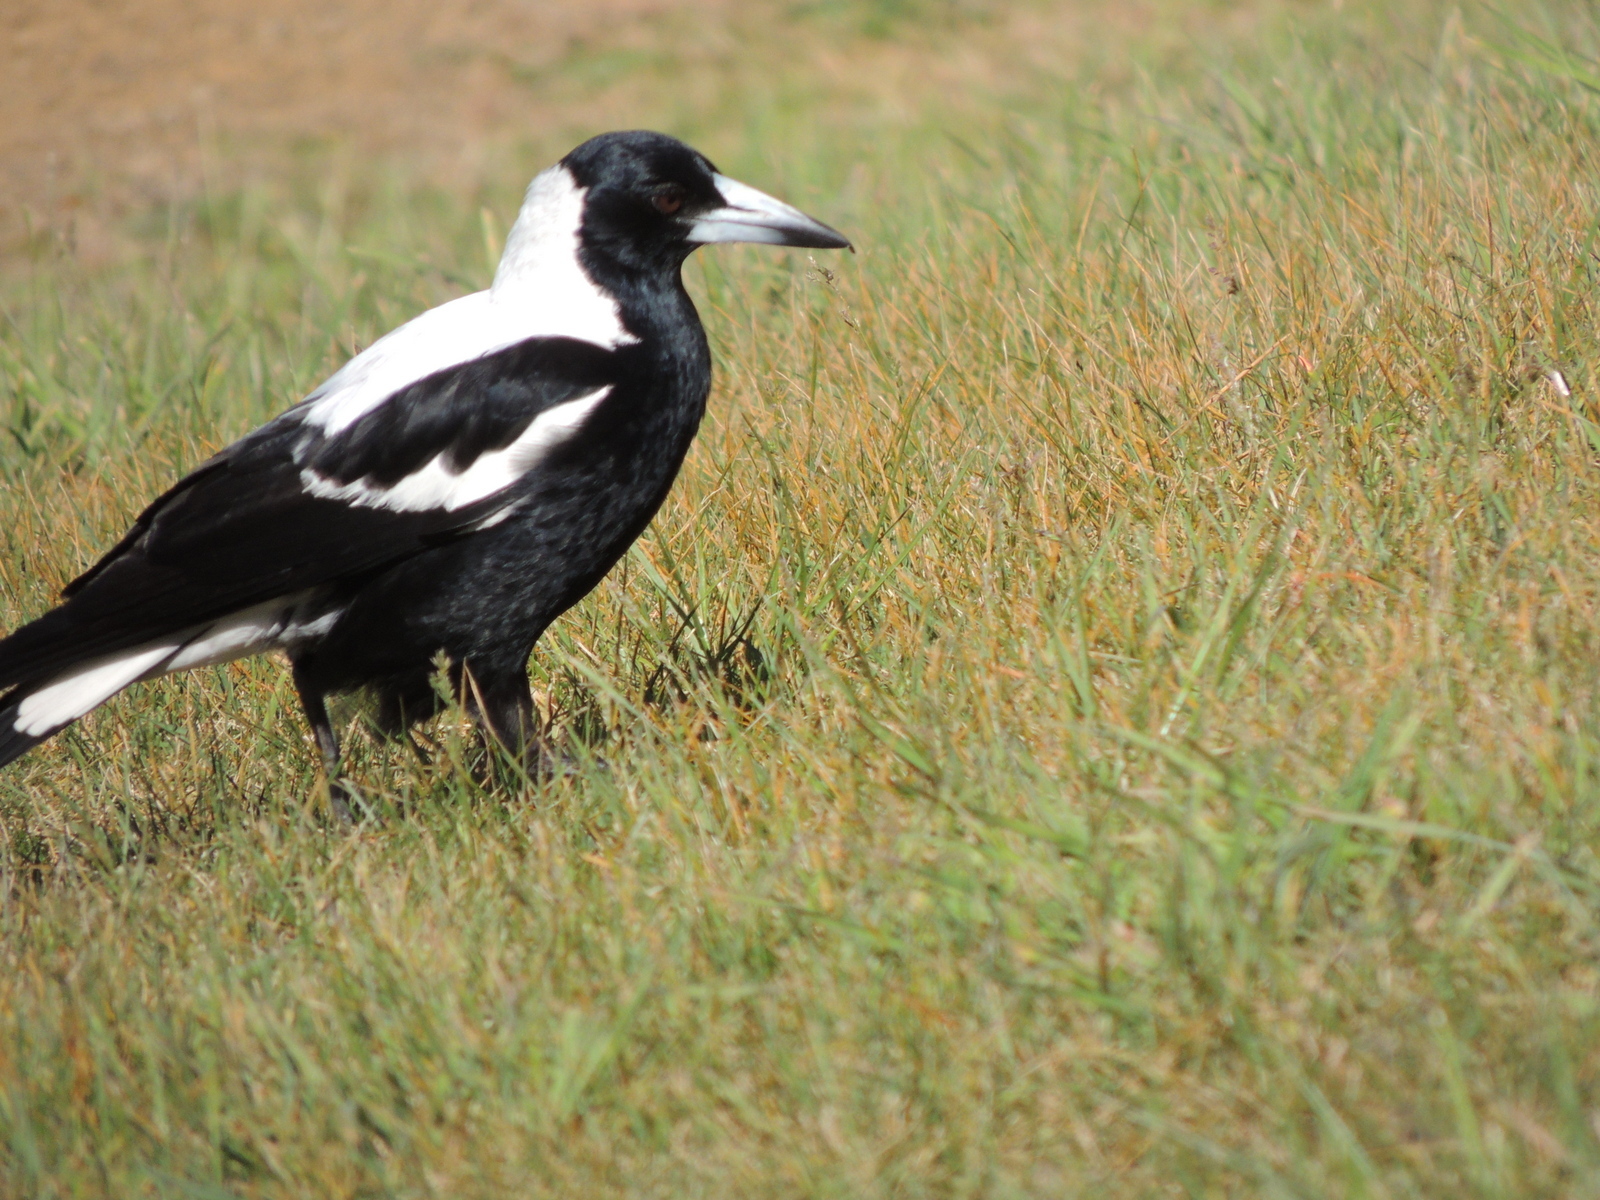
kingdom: Animalia
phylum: Chordata
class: Aves
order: Passeriformes
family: Cracticidae
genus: Gymnorhina
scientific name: Gymnorhina tibicen
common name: Australian magpie
